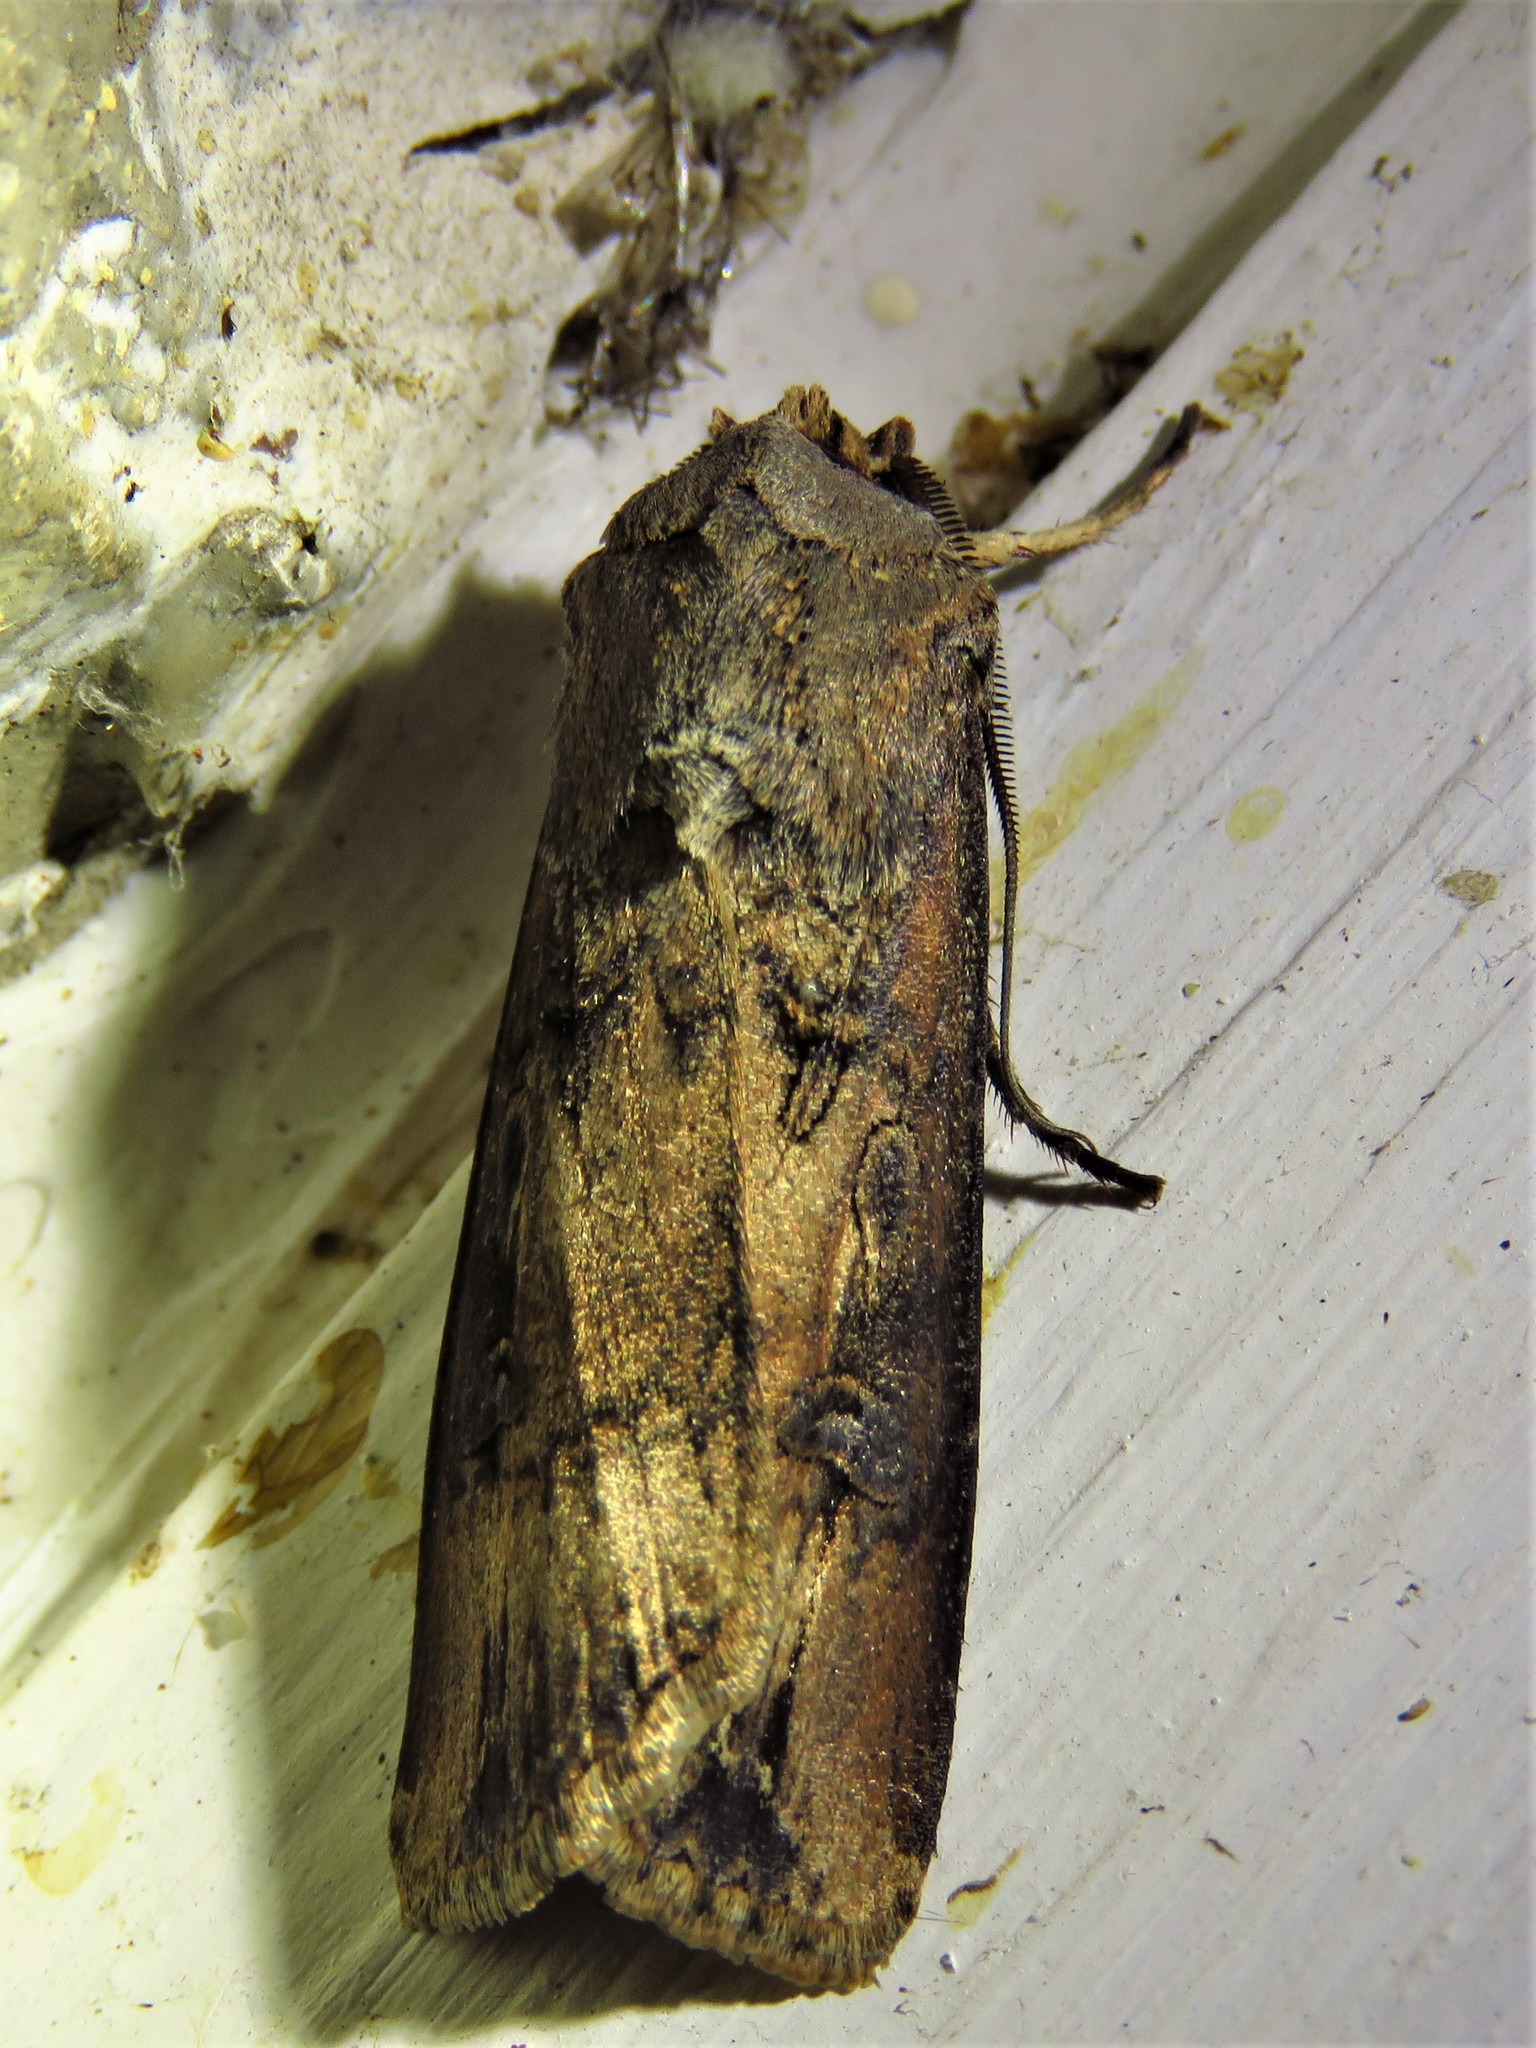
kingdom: Animalia
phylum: Arthropoda
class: Insecta
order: Lepidoptera
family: Noctuidae
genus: Agrotis
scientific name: Agrotis ipsilon
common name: Dark sword-grass
